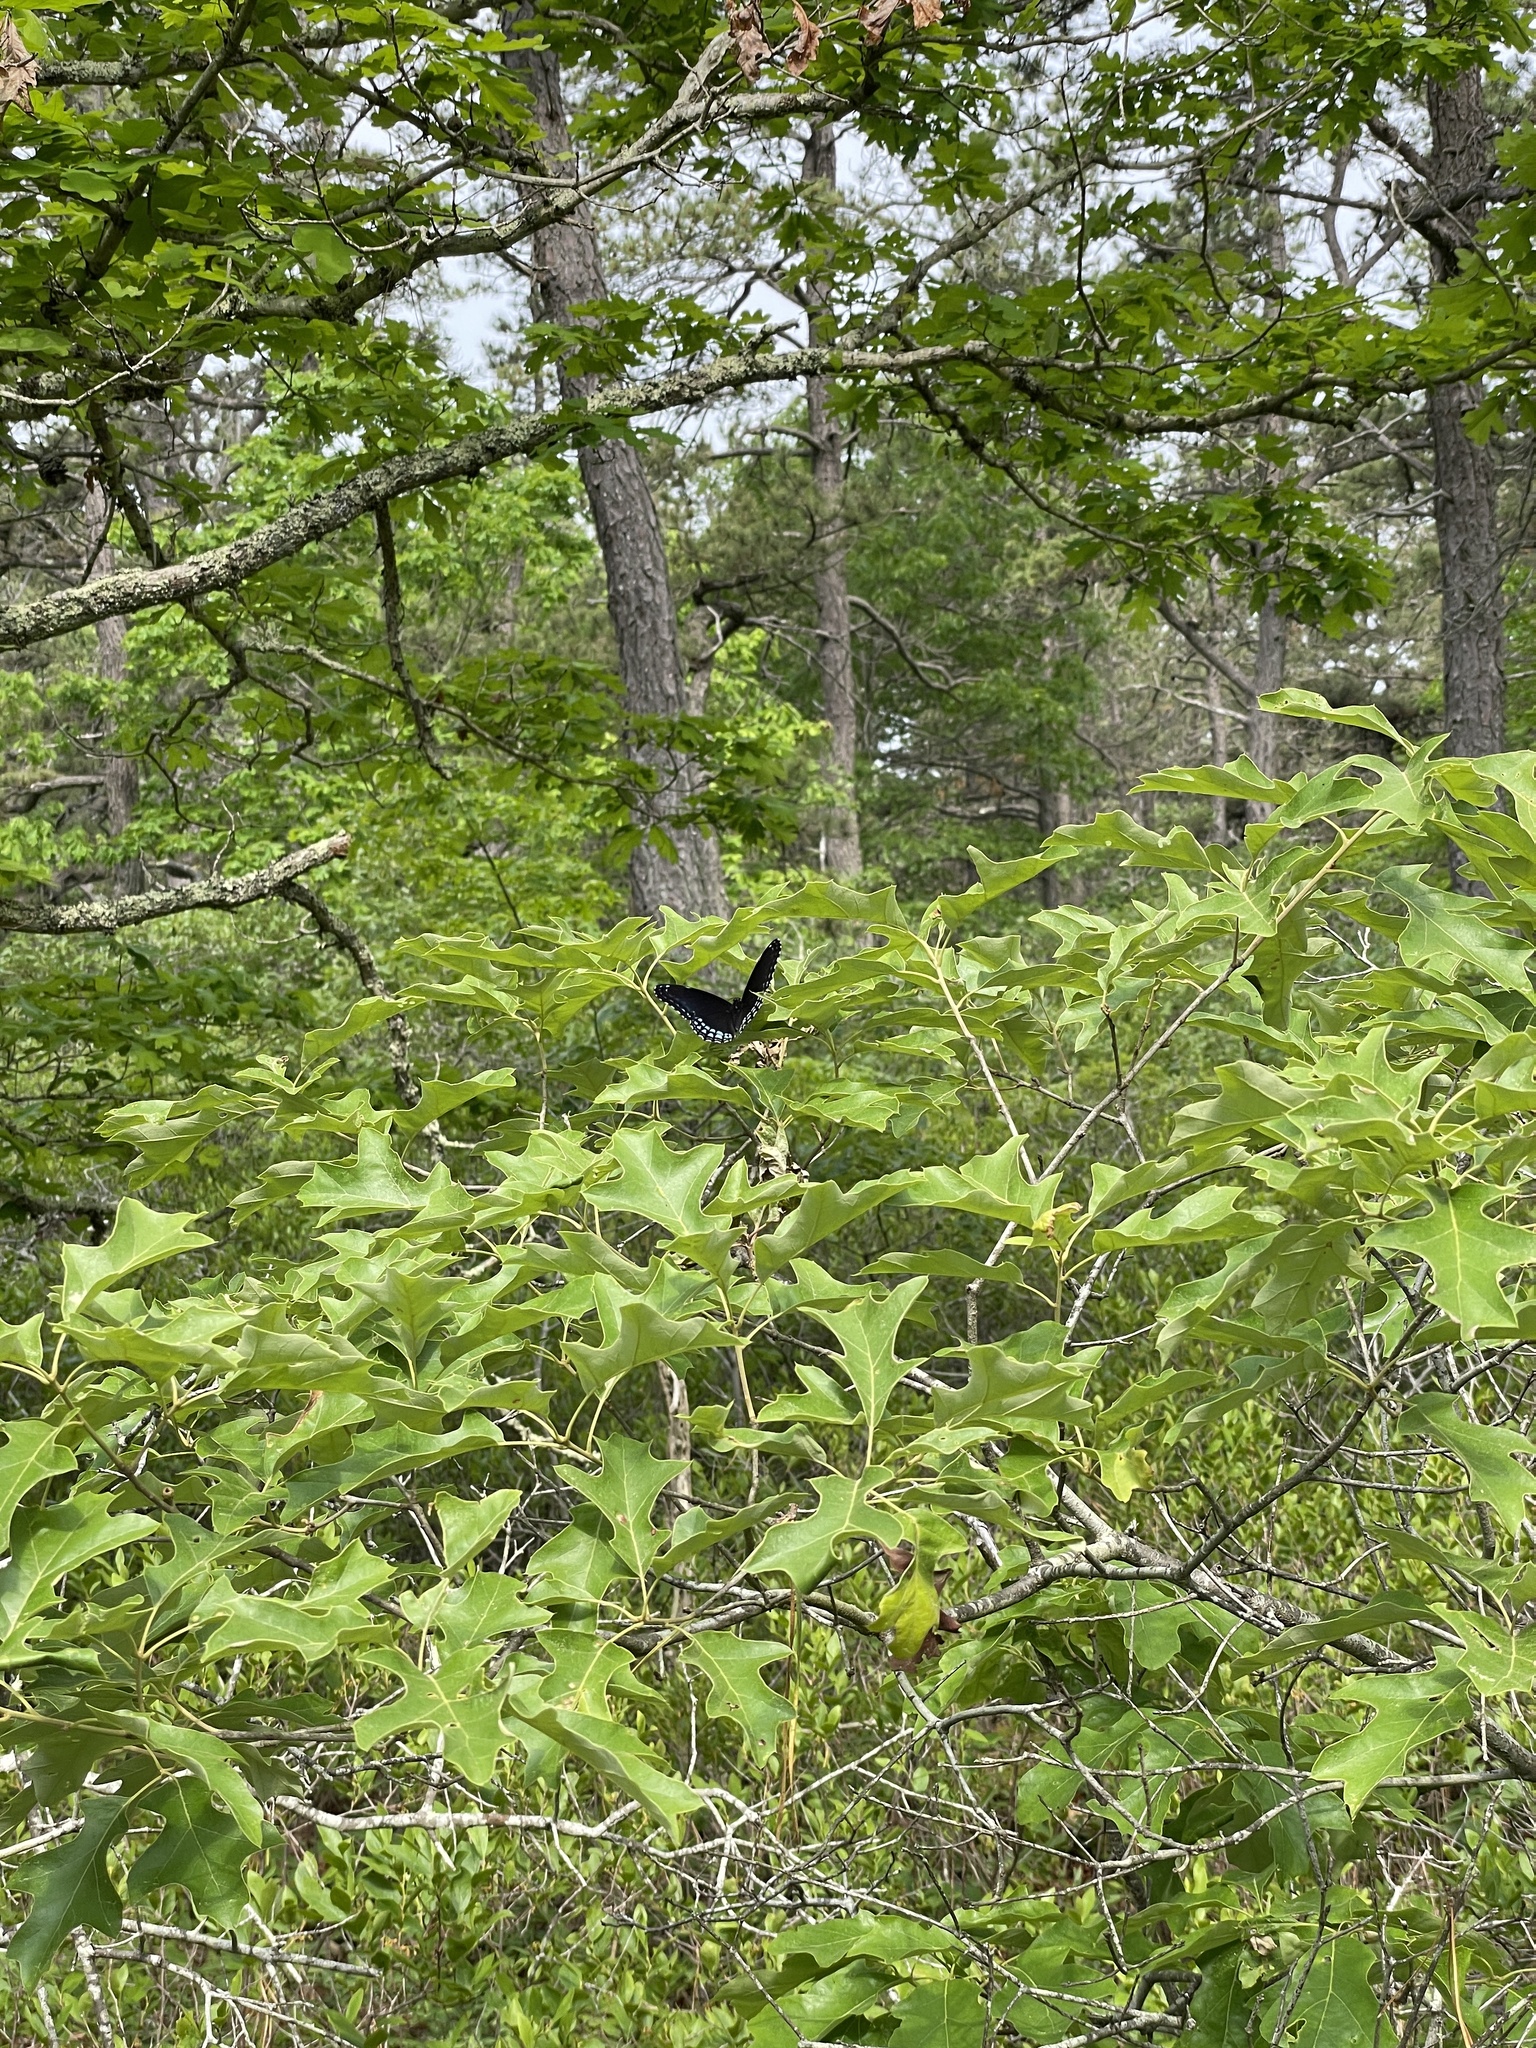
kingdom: Animalia
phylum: Arthropoda
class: Insecta
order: Lepidoptera
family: Nymphalidae
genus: Limenitis
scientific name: Limenitis arthemis
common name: Red-spotted admiral
